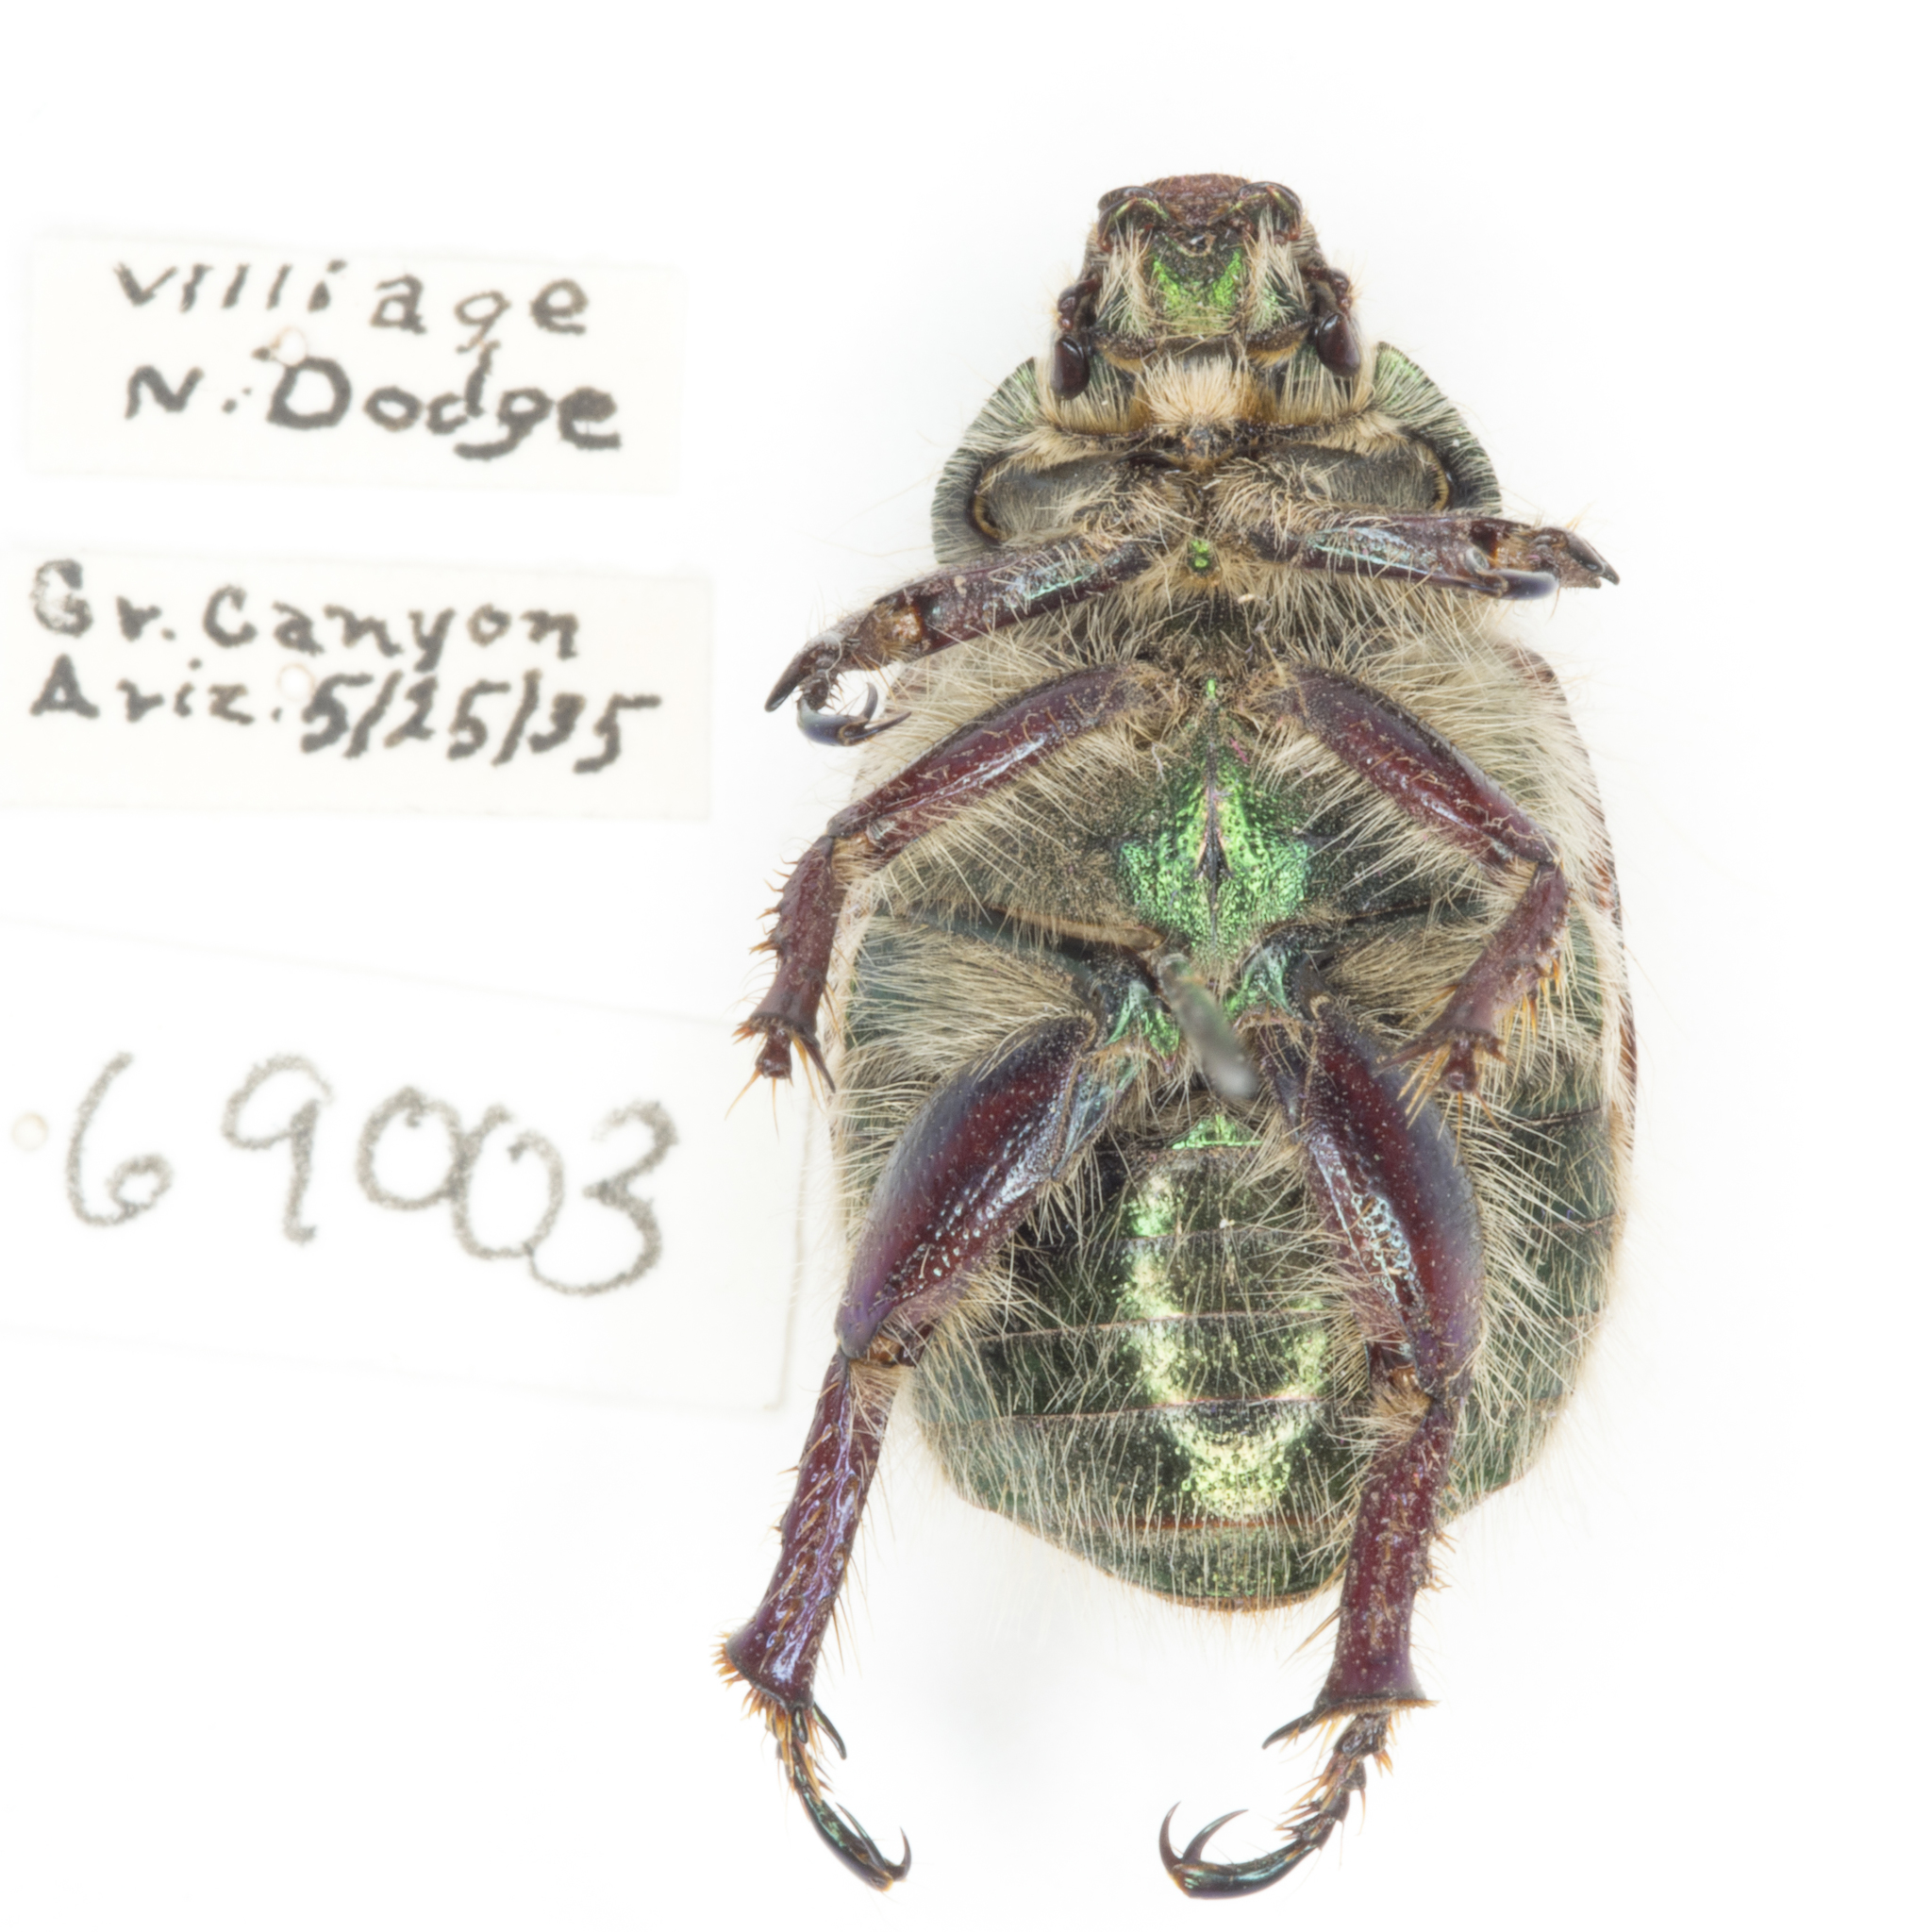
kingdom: Animalia
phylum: Arthropoda
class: Insecta
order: Coleoptera
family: Scarabaeidae
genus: Paracotalpa
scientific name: Paracotalpa puncticollis
